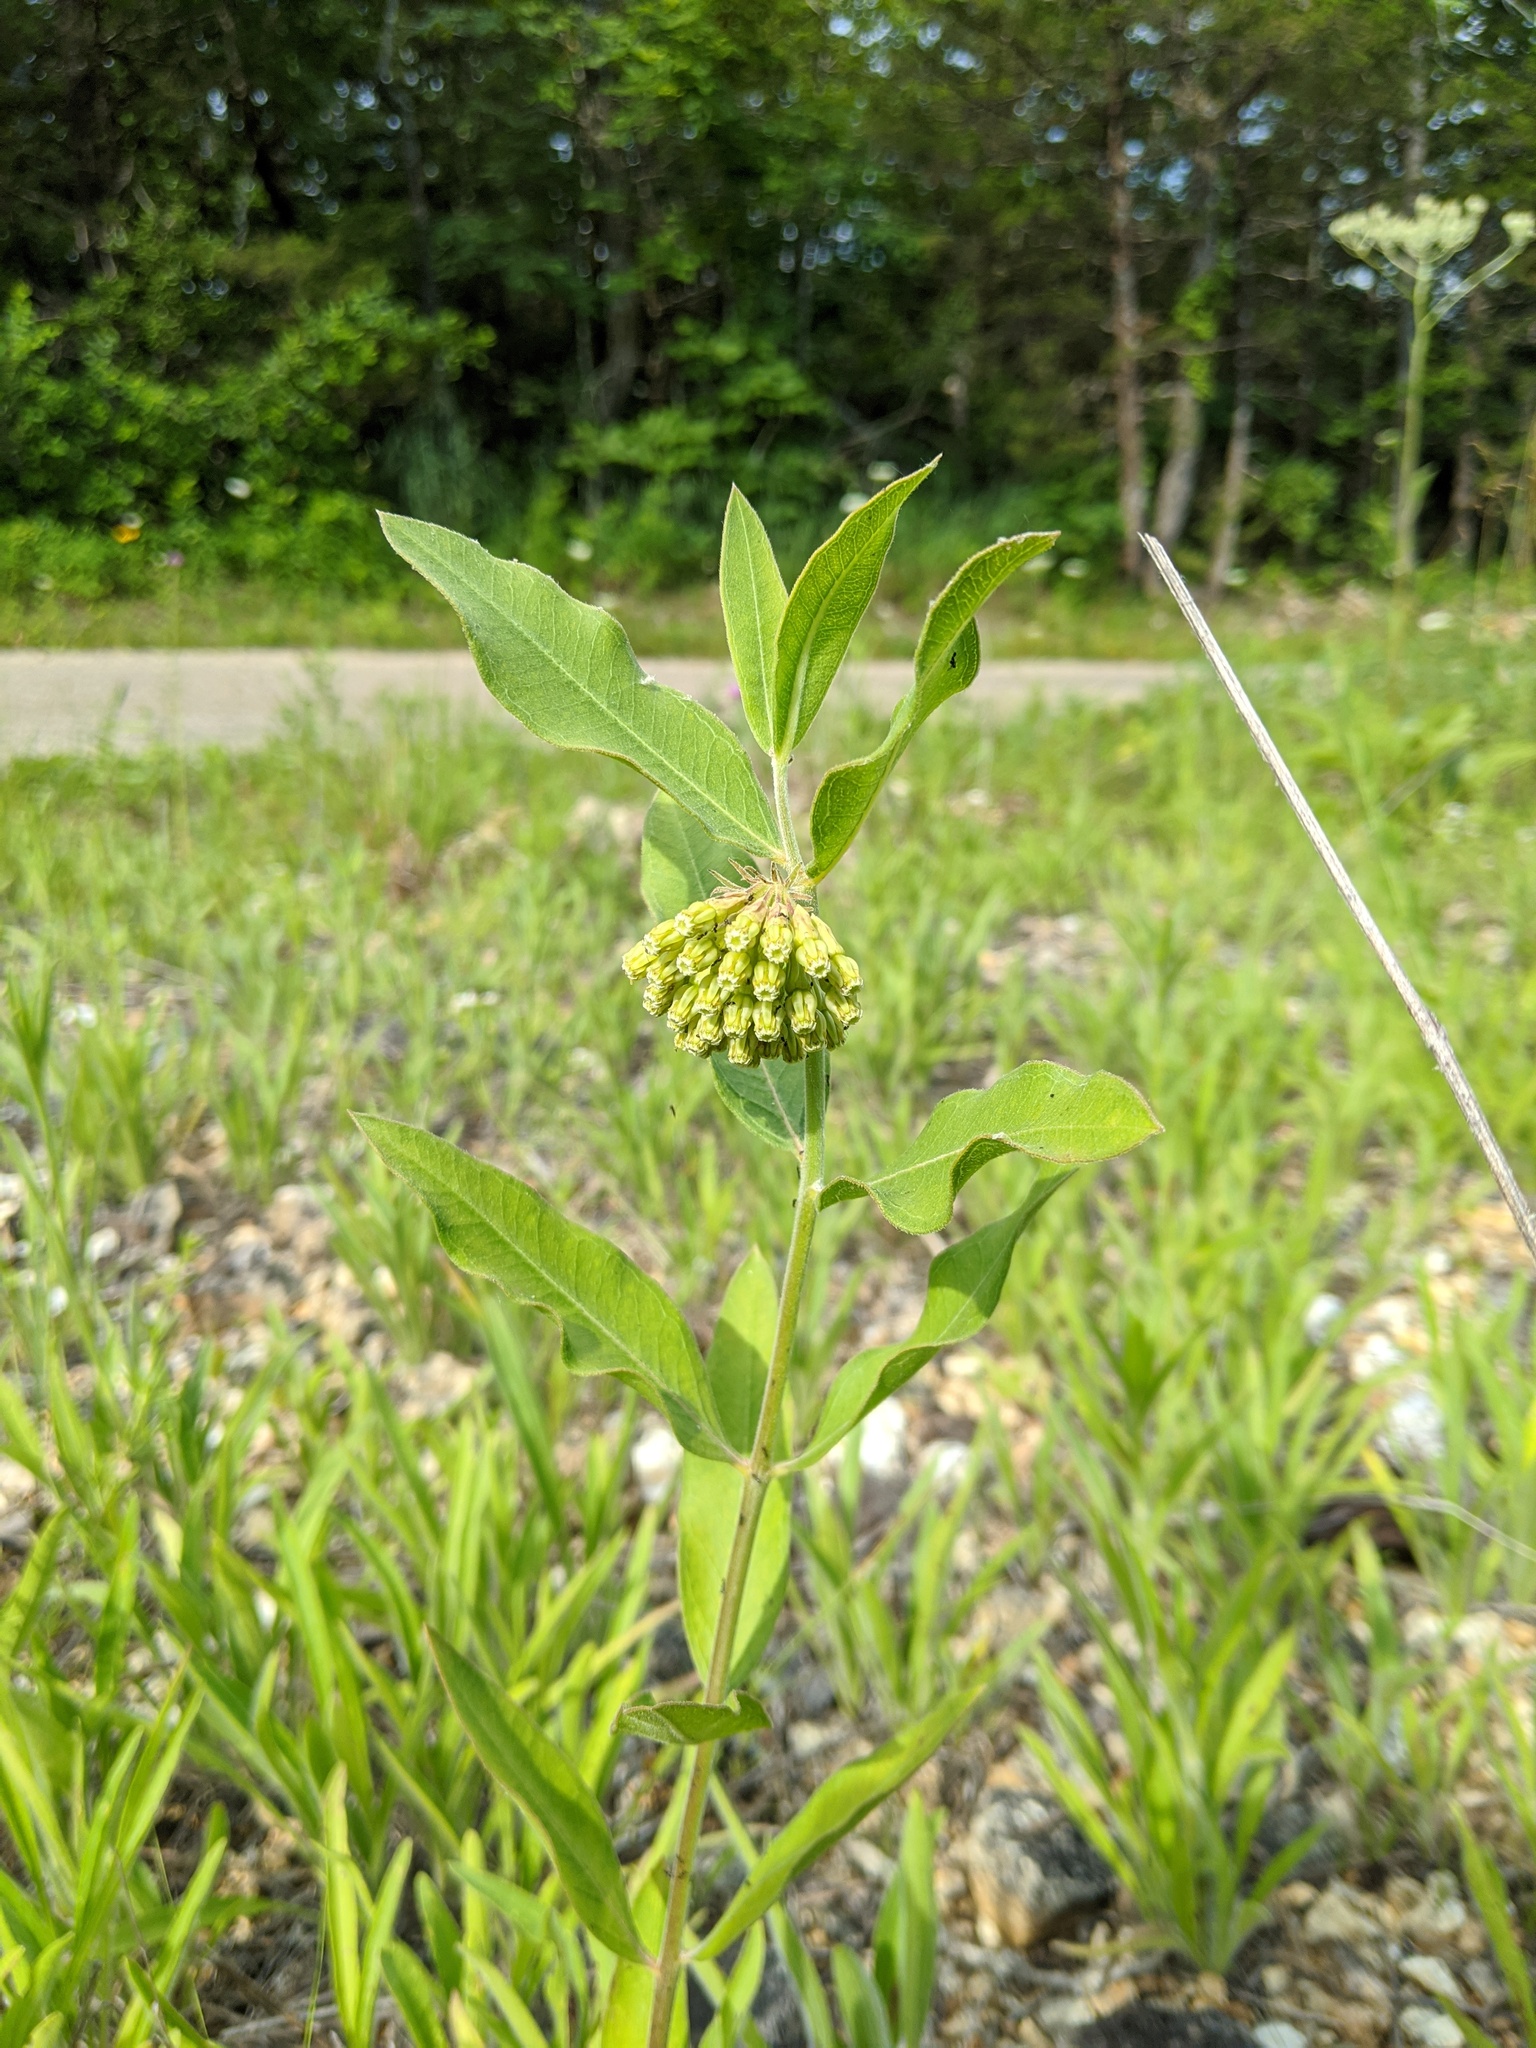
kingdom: Plantae
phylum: Tracheophyta
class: Magnoliopsida
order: Gentianales
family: Apocynaceae
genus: Asclepias
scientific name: Asclepias viridiflora
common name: Green comet milkweed
